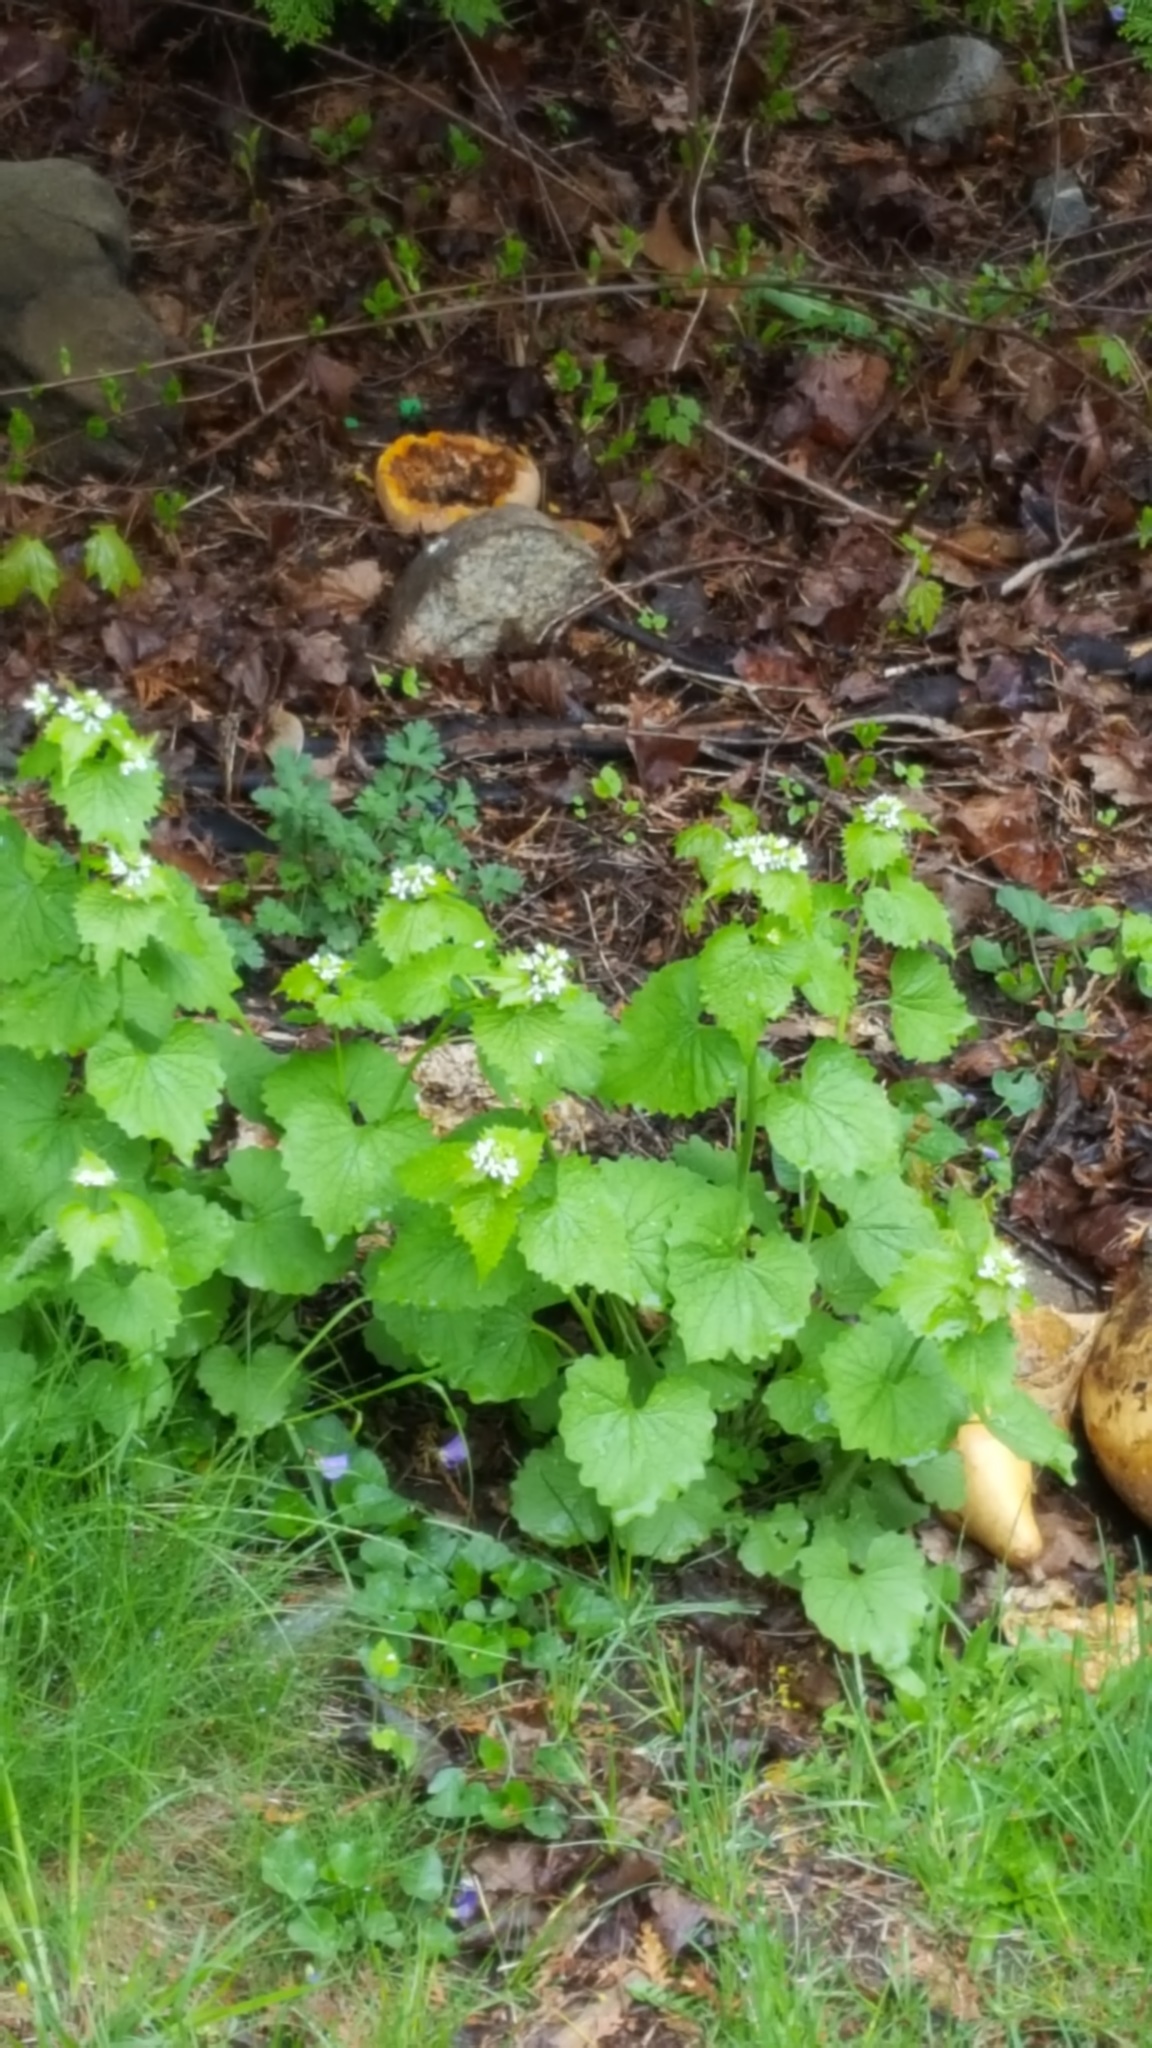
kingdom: Plantae
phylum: Tracheophyta
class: Magnoliopsida
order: Brassicales
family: Brassicaceae
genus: Alliaria
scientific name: Alliaria petiolata
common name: Garlic mustard
